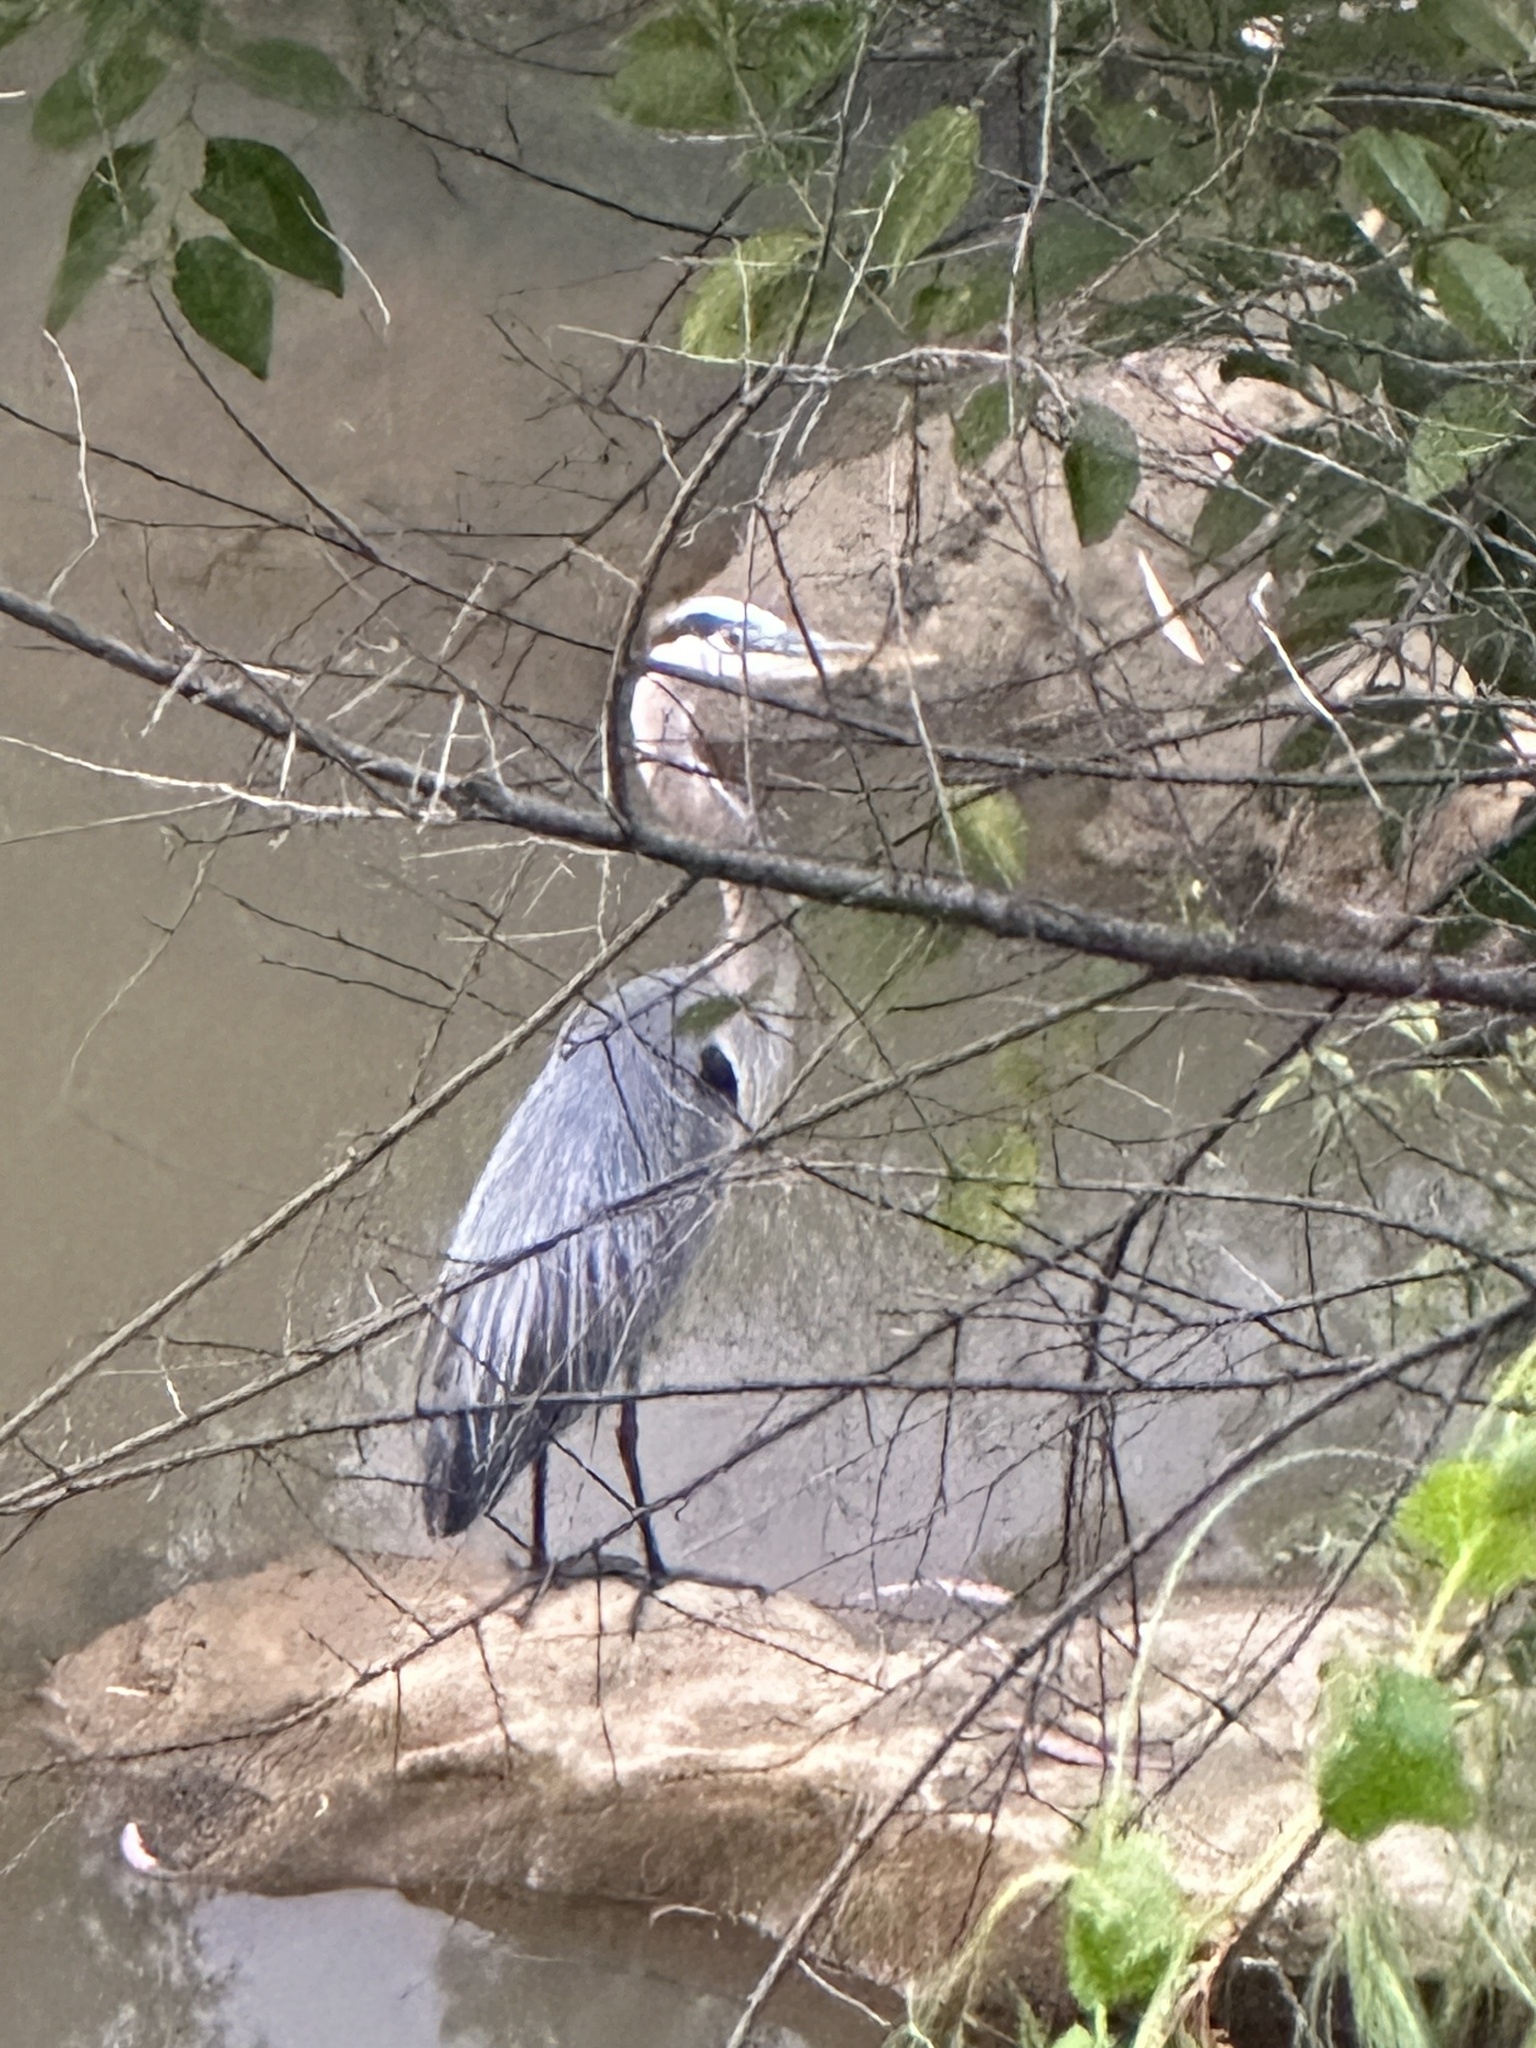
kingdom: Animalia
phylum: Chordata
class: Aves
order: Pelecaniformes
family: Ardeidae
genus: Ardea
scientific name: Ardea herodias
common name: Great blue heron
